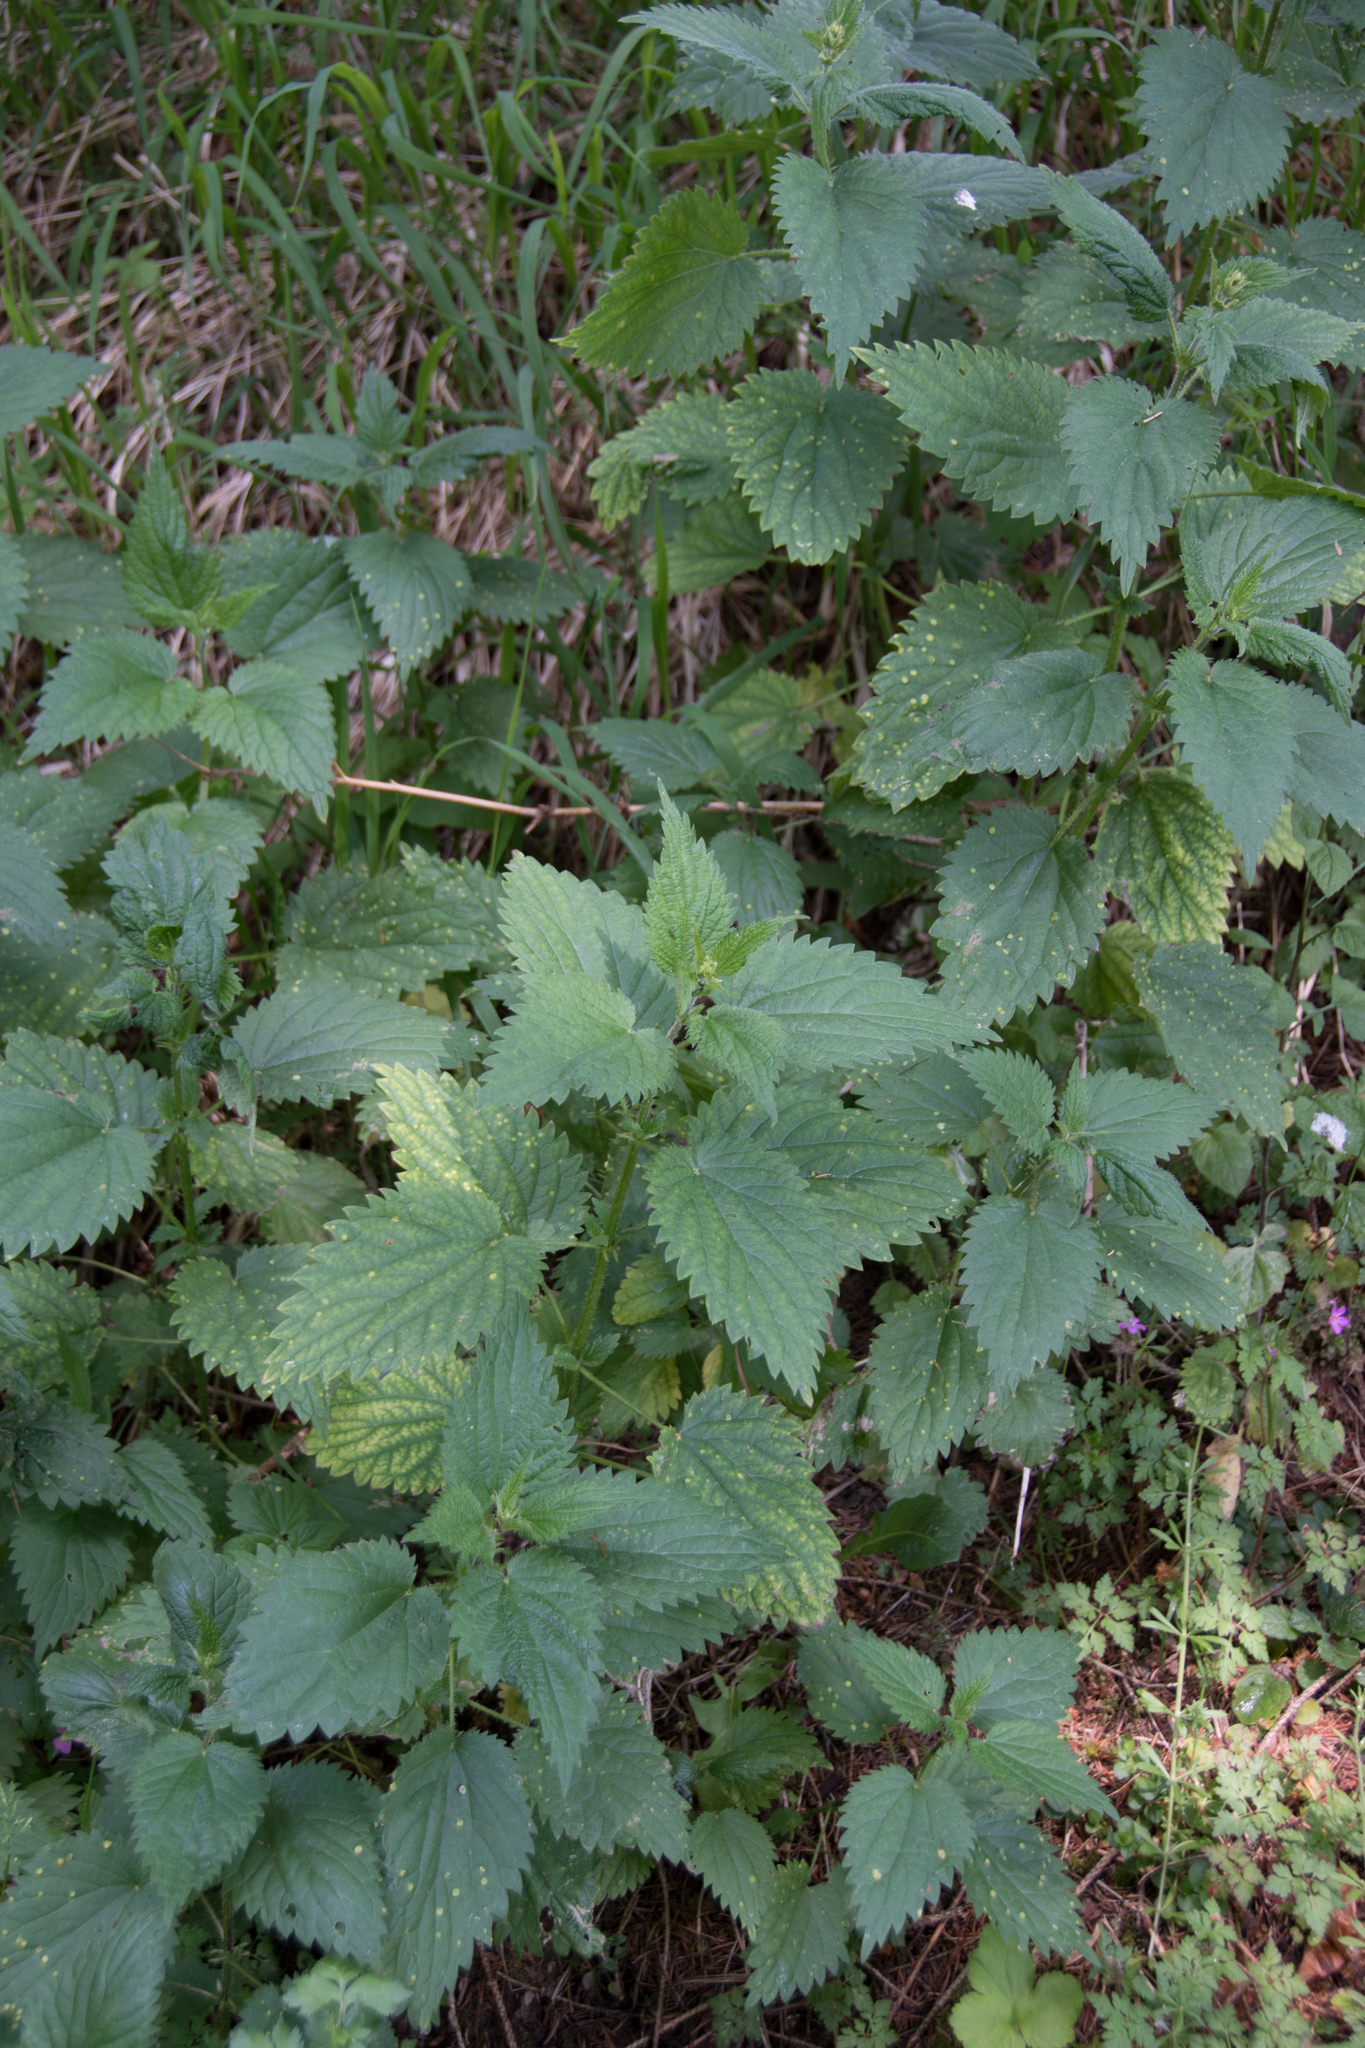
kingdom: Plantae
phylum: Tracheophyta
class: Magnoliopsida
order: Rosales
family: Urticaceae
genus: Urtica
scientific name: Urtica dioica
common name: Common nettle
